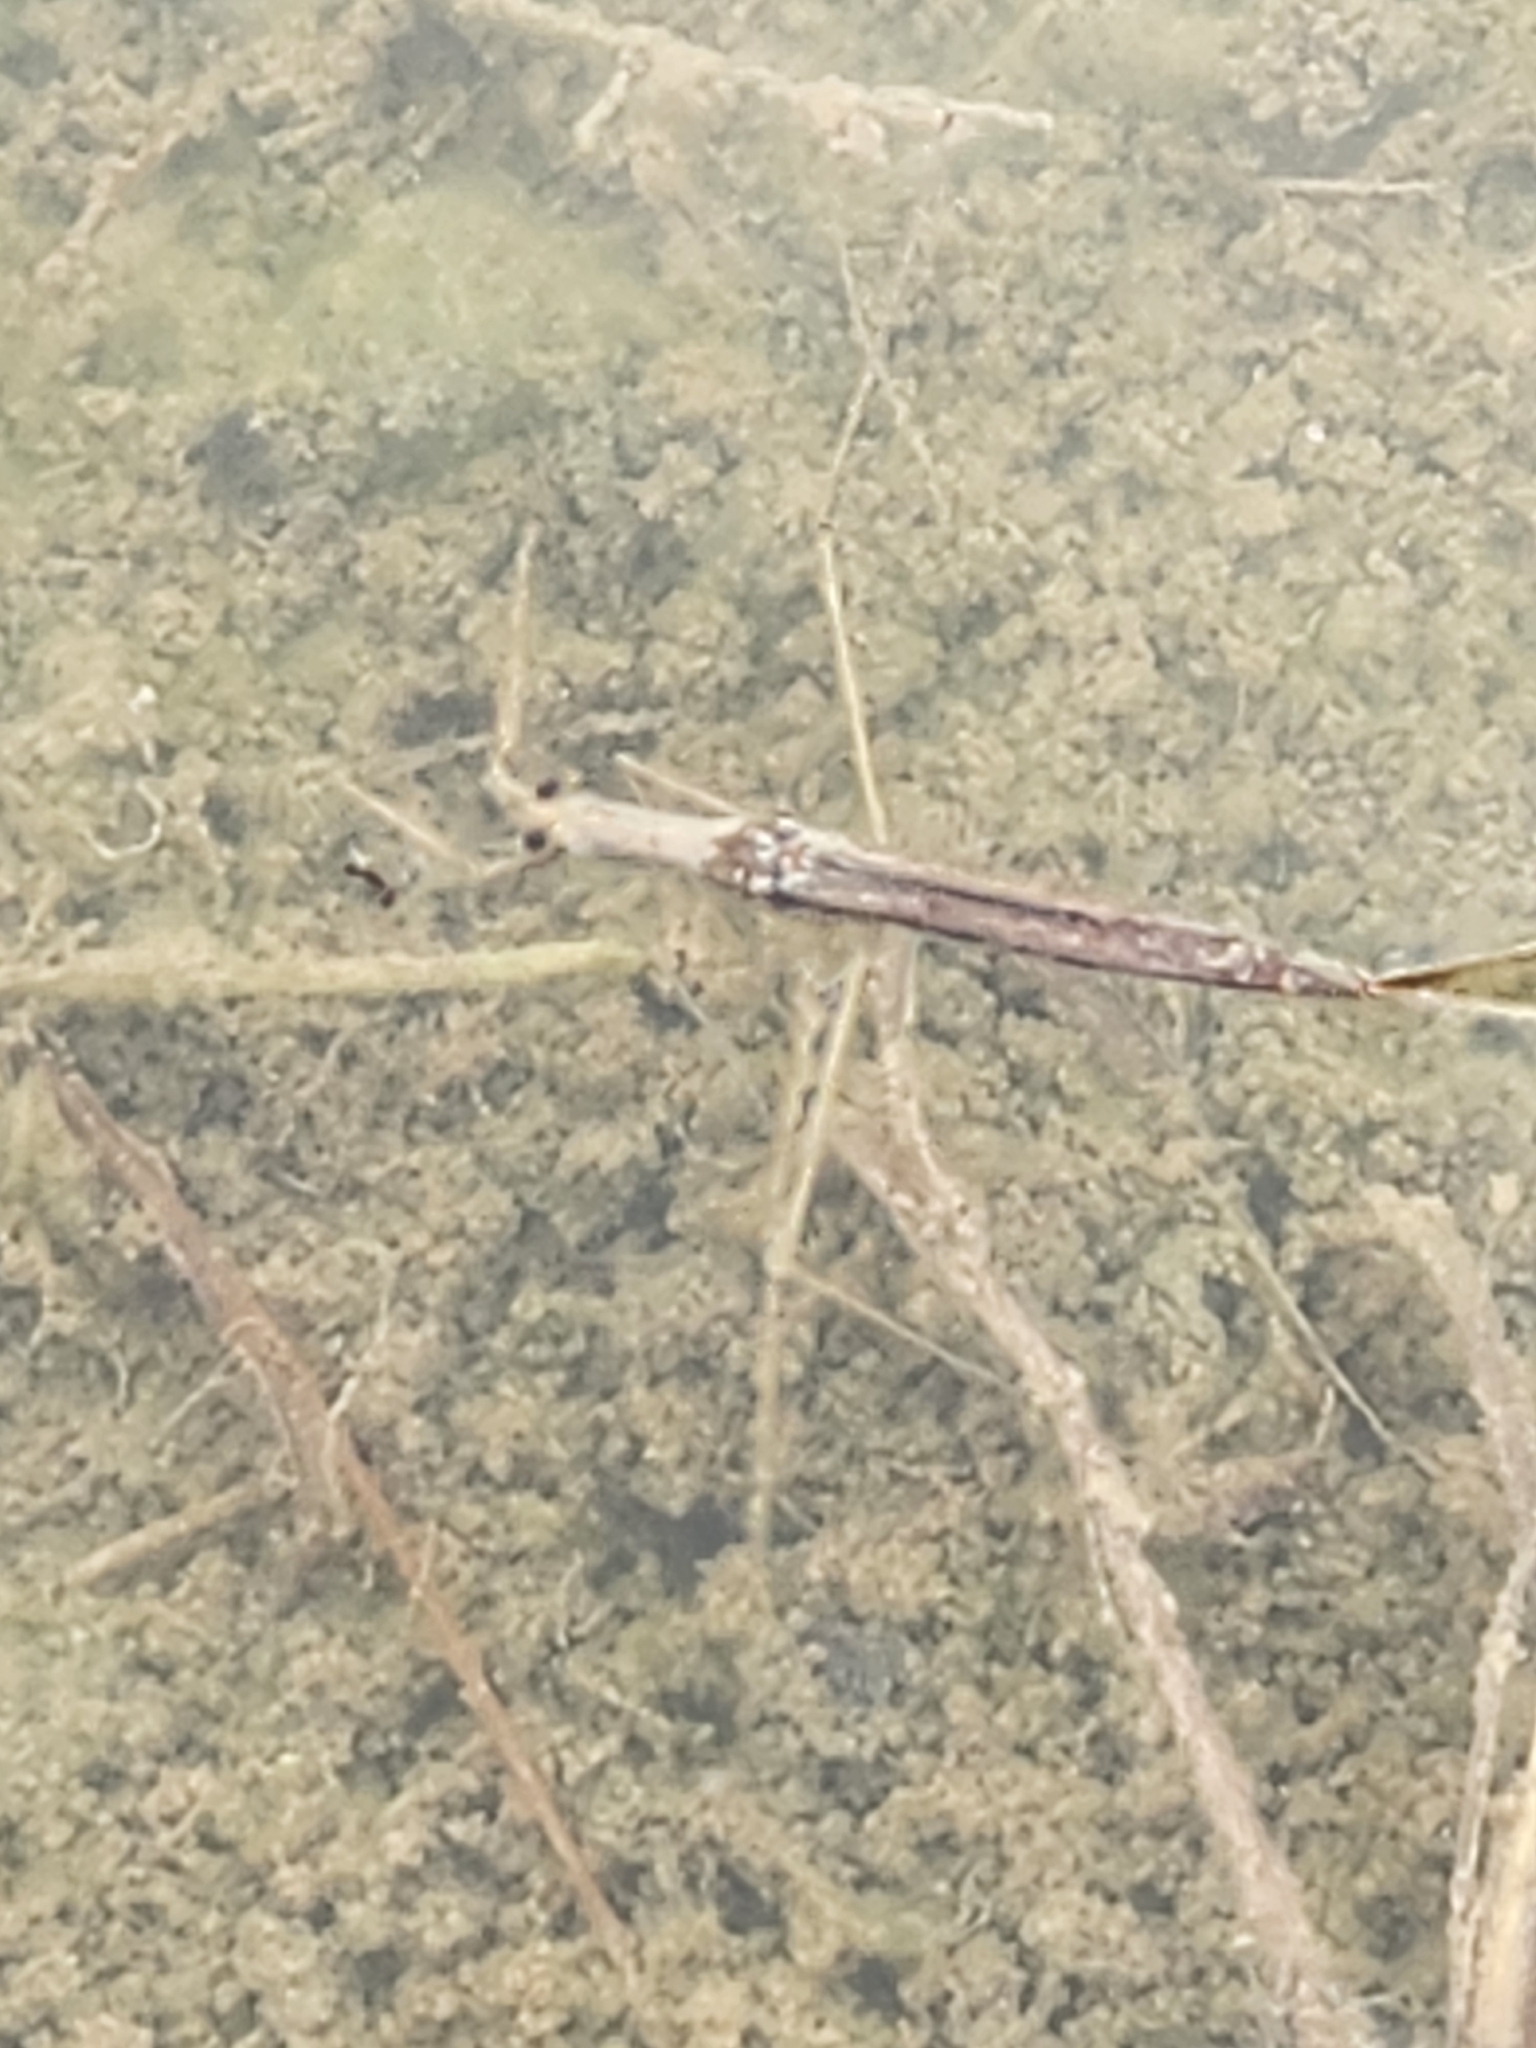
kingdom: Animalia
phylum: Arthropoda
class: Insecta
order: Hemiptera
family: Nepidae
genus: Ranatra
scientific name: Ranatra
